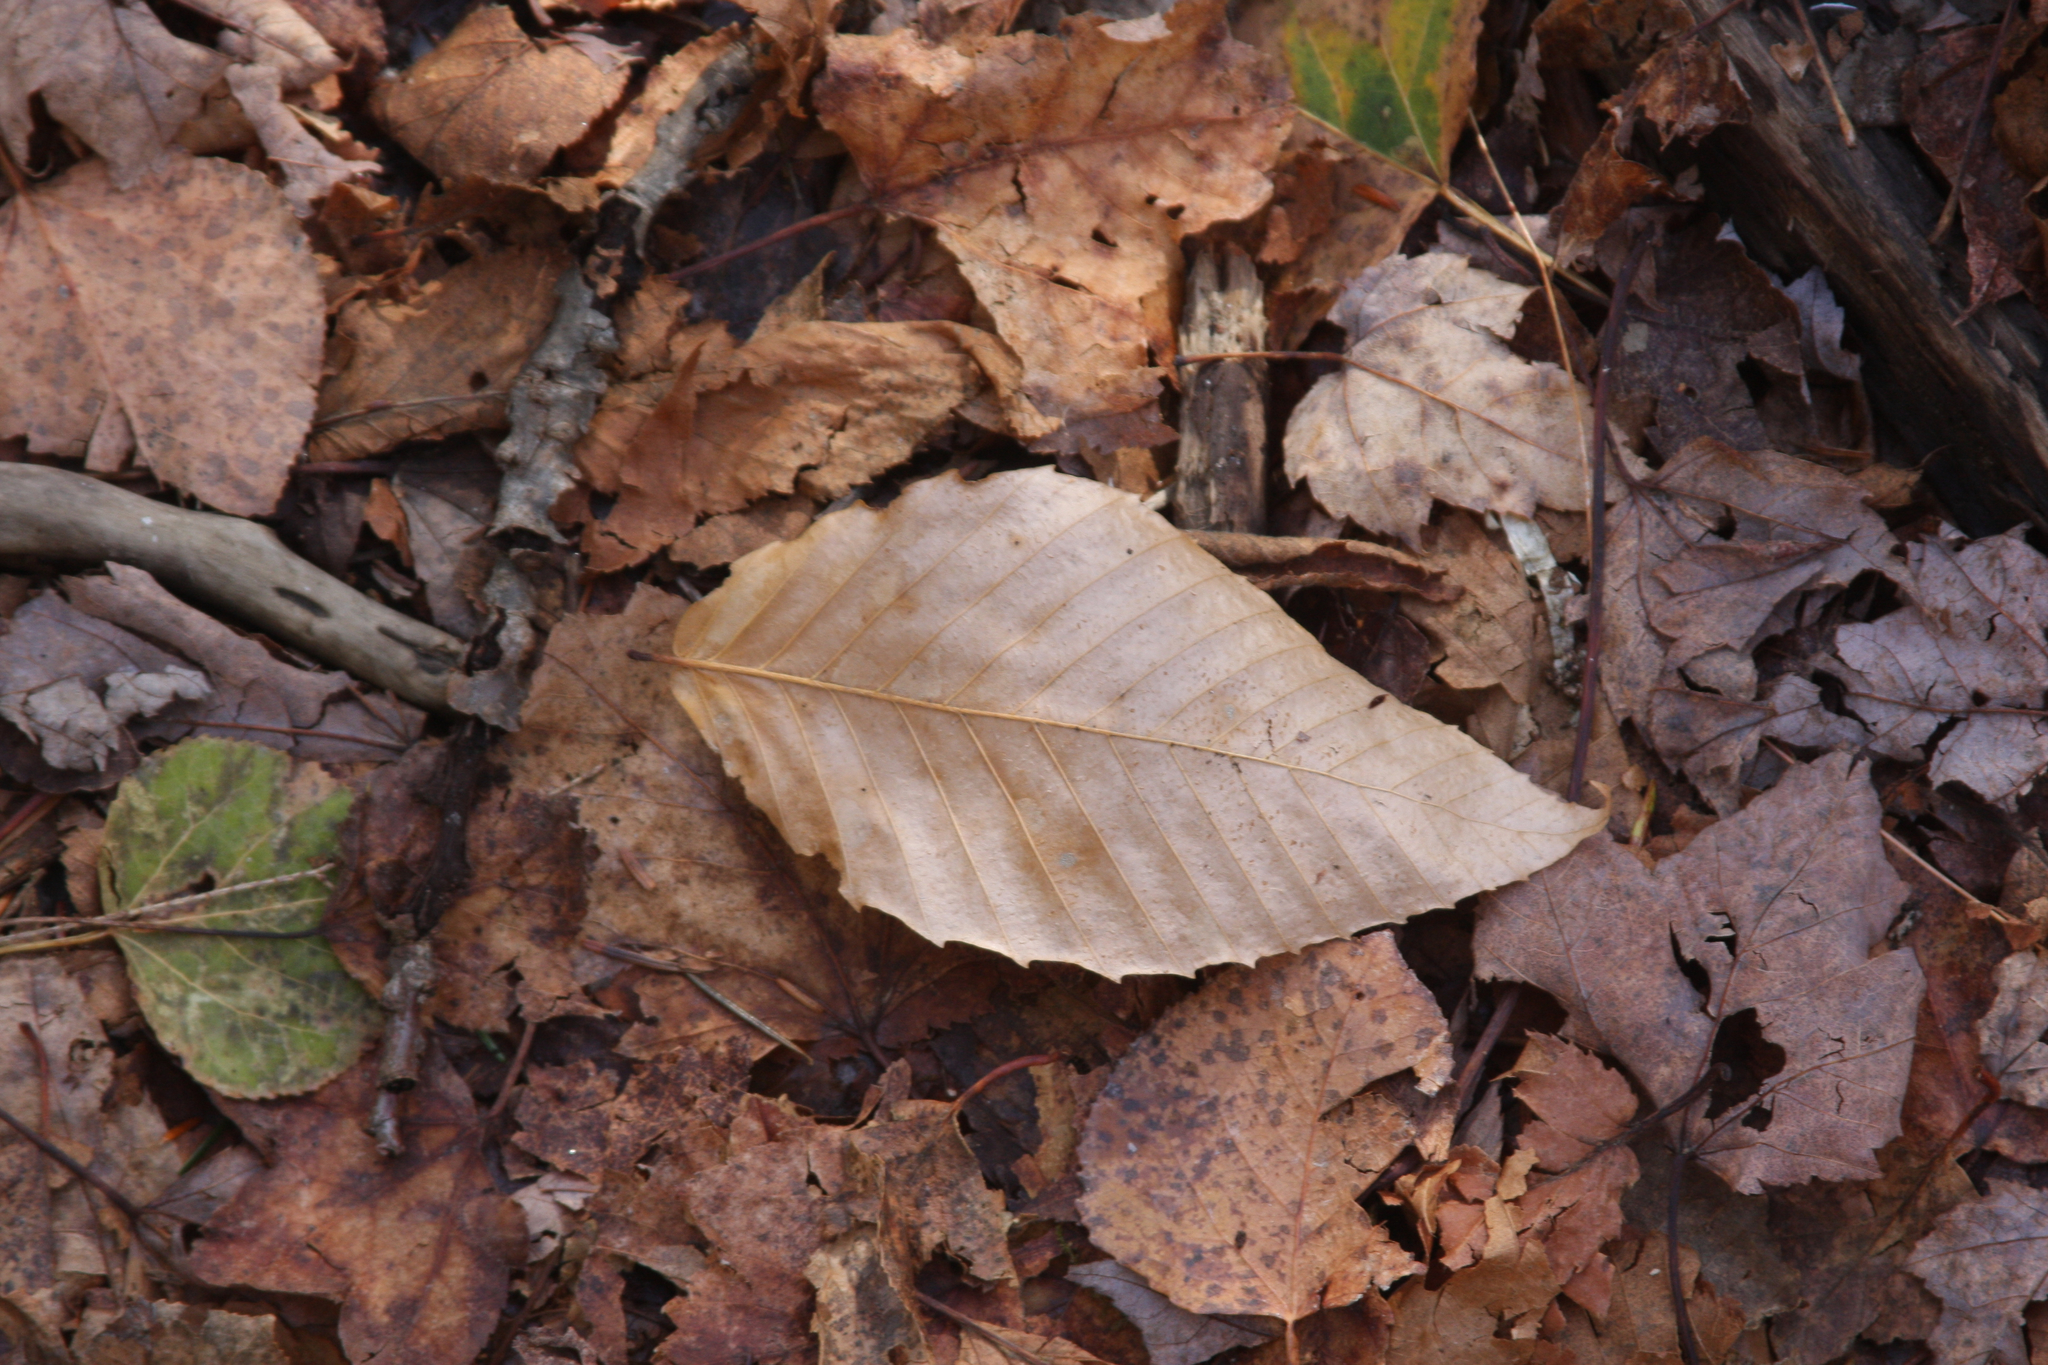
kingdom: Plantae
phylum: Tracheophyta
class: Magnoliopsida
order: Fagales
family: Fagaceae
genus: Fagus
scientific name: Fagus grandifolia
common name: American beech
